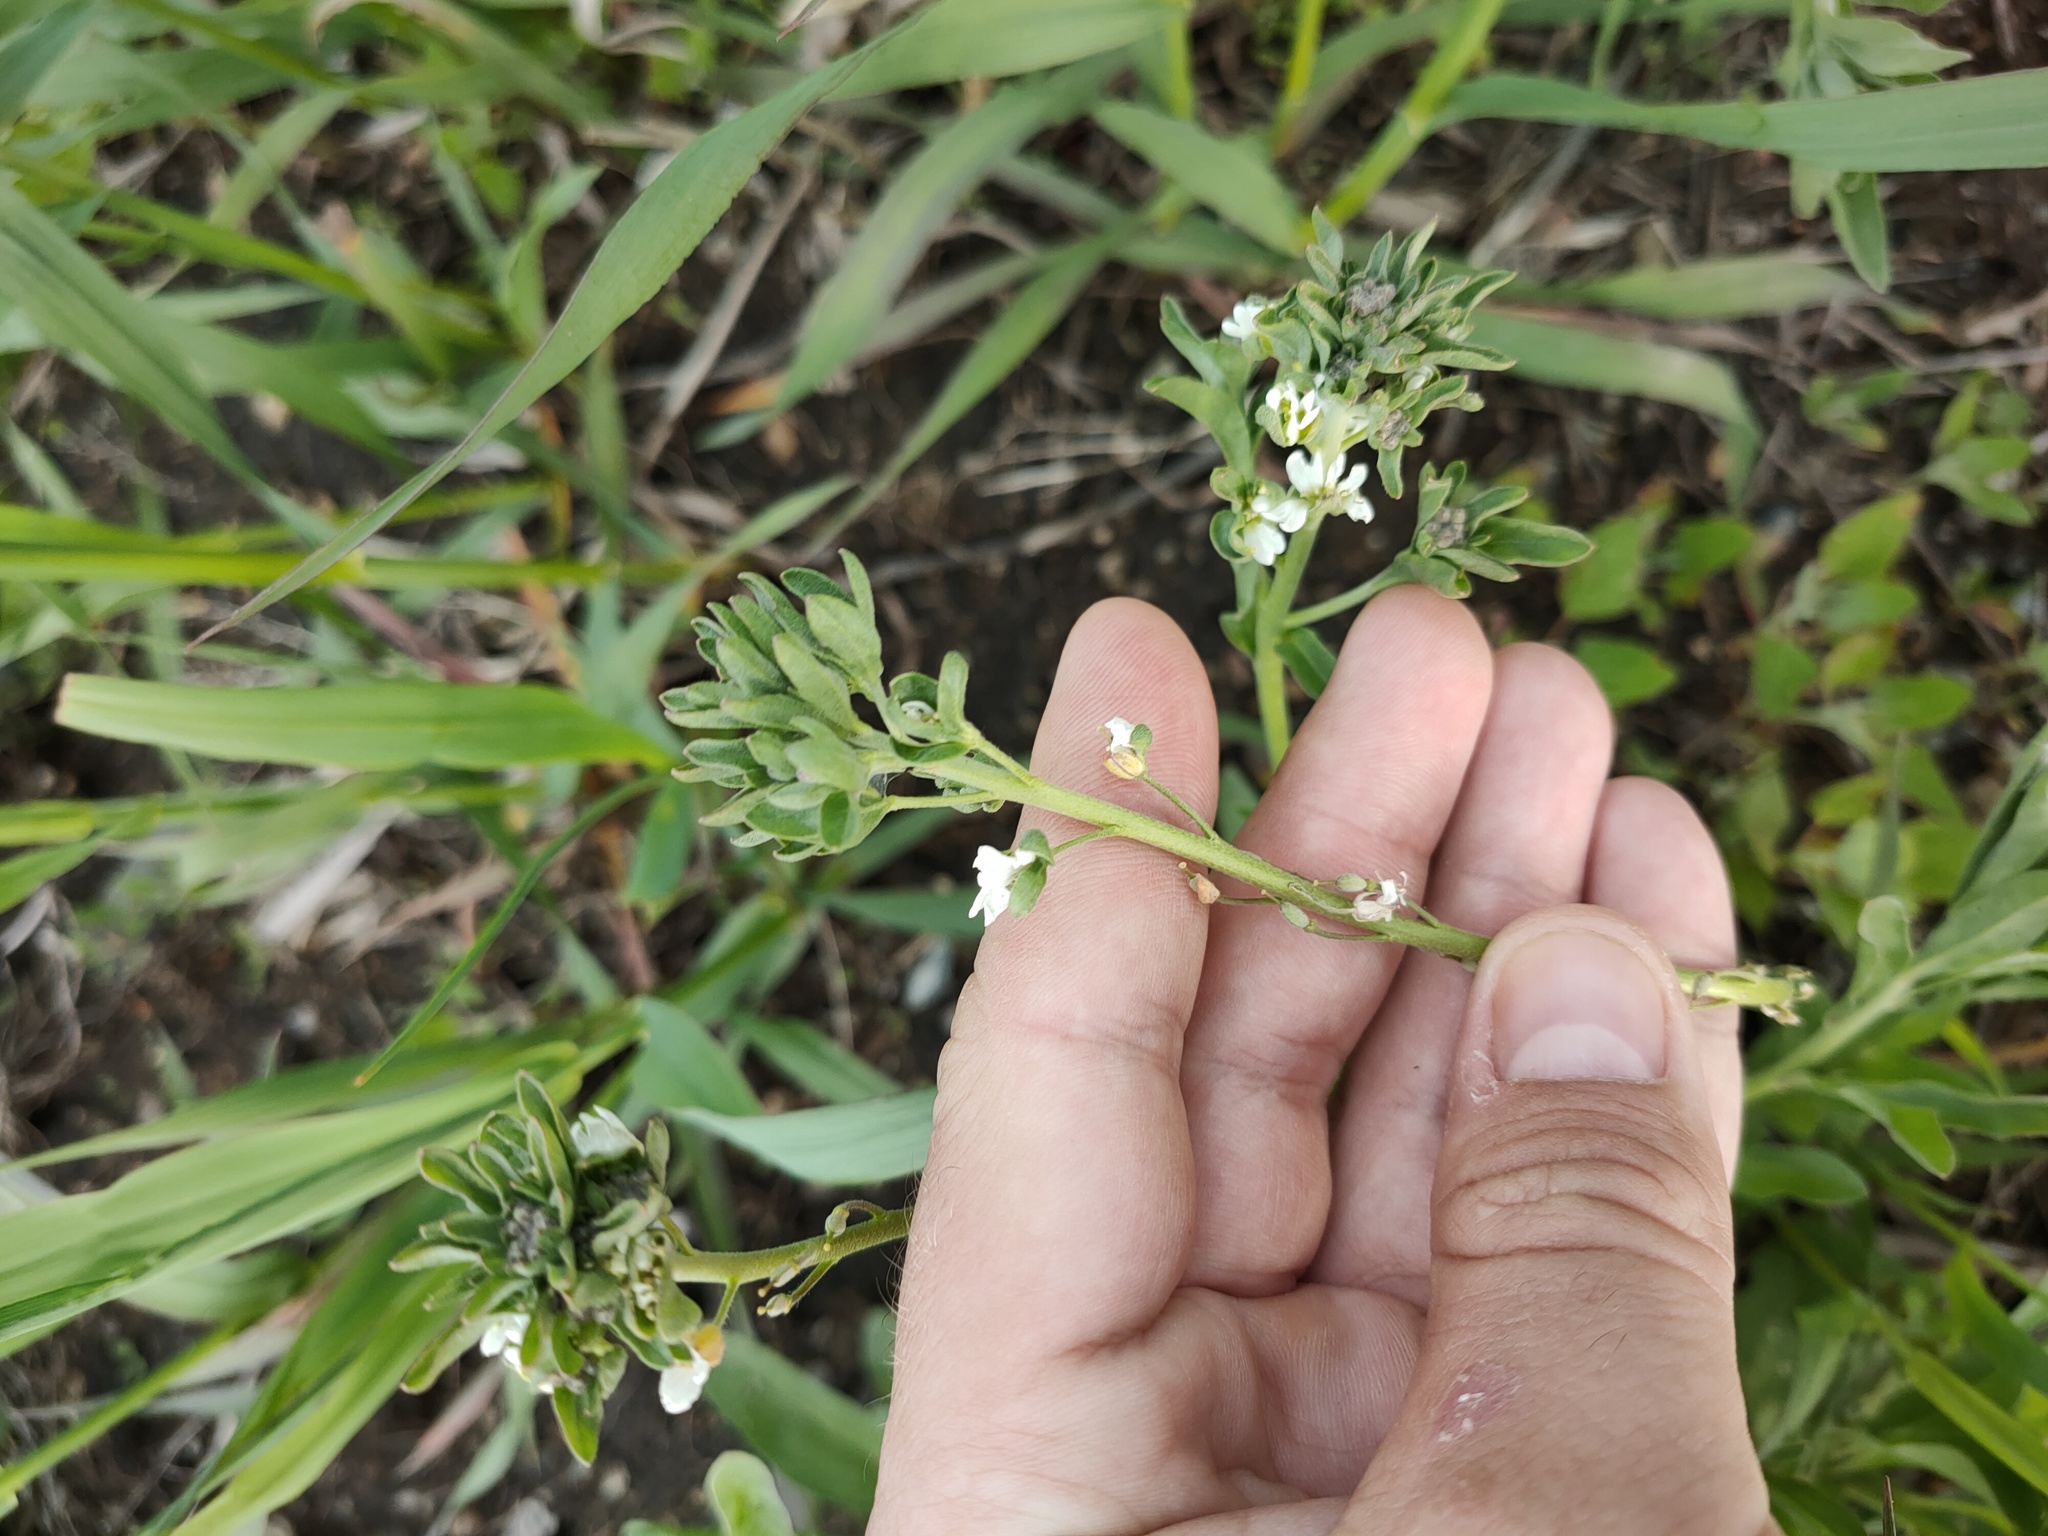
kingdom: Plantae
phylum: Tracheophyta
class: Magnoliopsida
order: Brassicales
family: Brassicaceae
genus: Berteroa
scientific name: Berteroa incana
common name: Hoary alison
